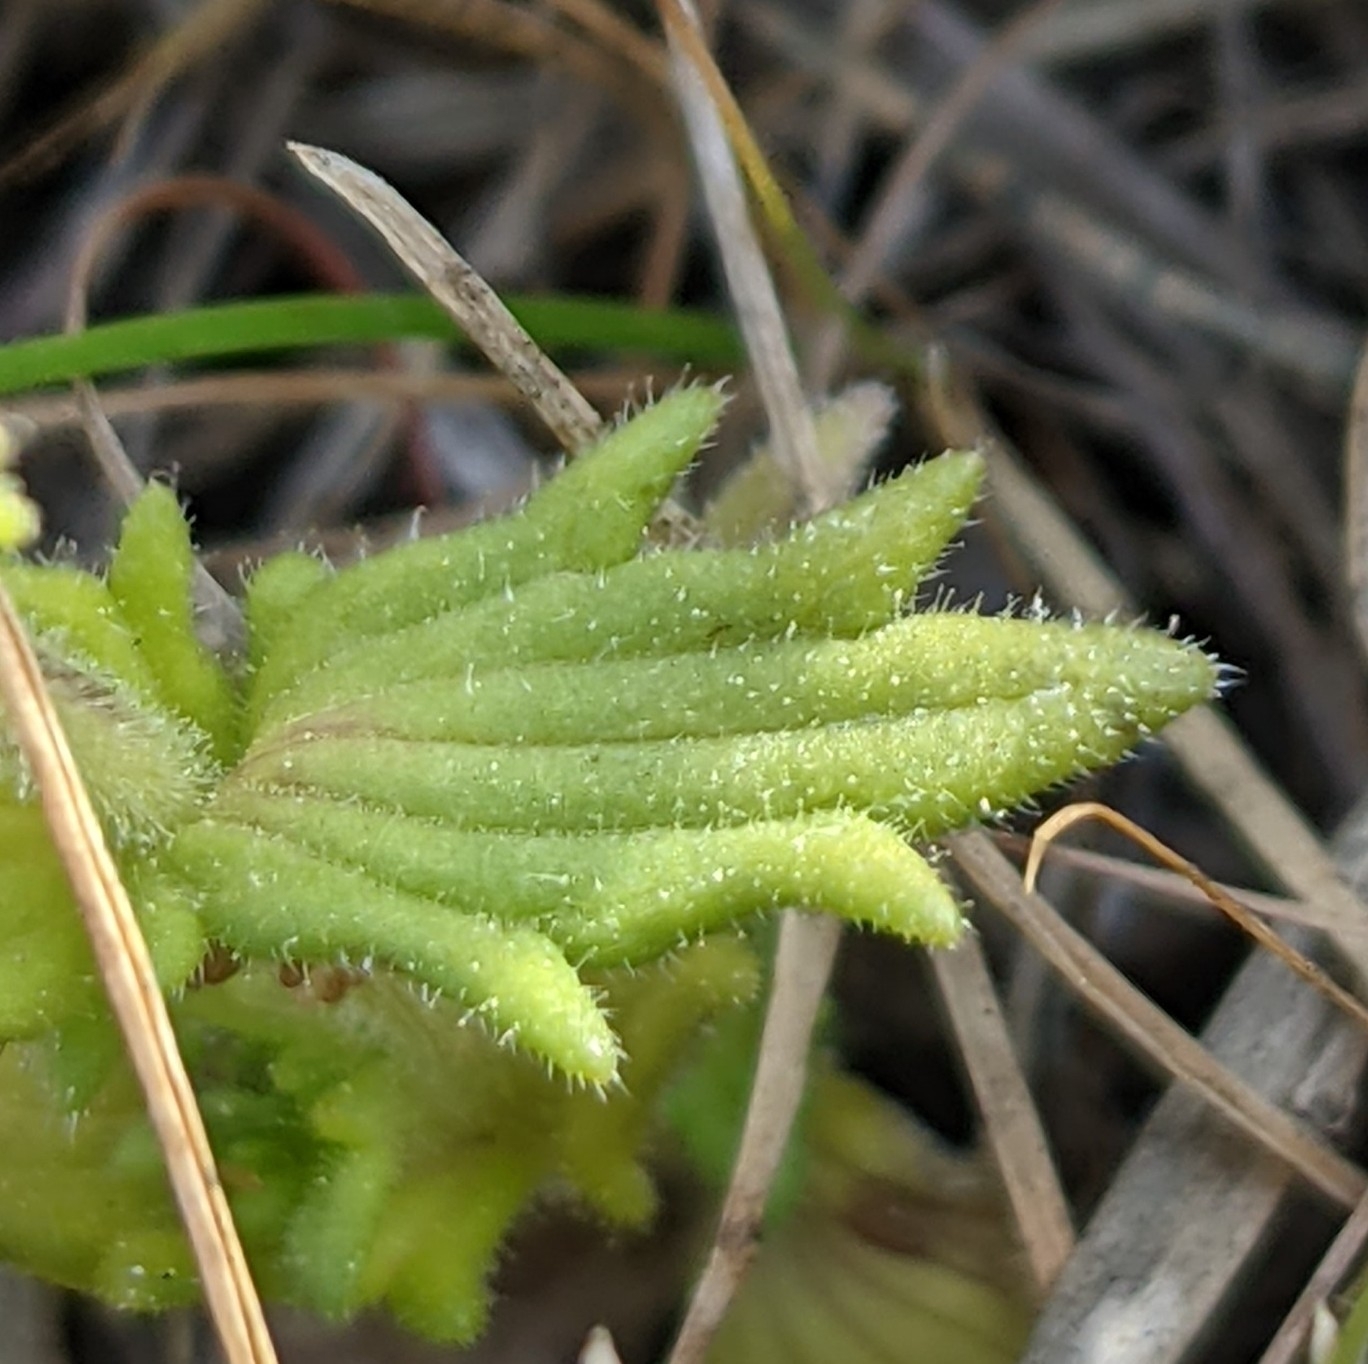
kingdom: Plantae
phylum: Tracheophyta
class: Magnoliopsida
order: Lamiales
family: Orobanchaceae
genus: Parentucellia
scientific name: Parentucellia latifolia
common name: Broadleaf glandweed
